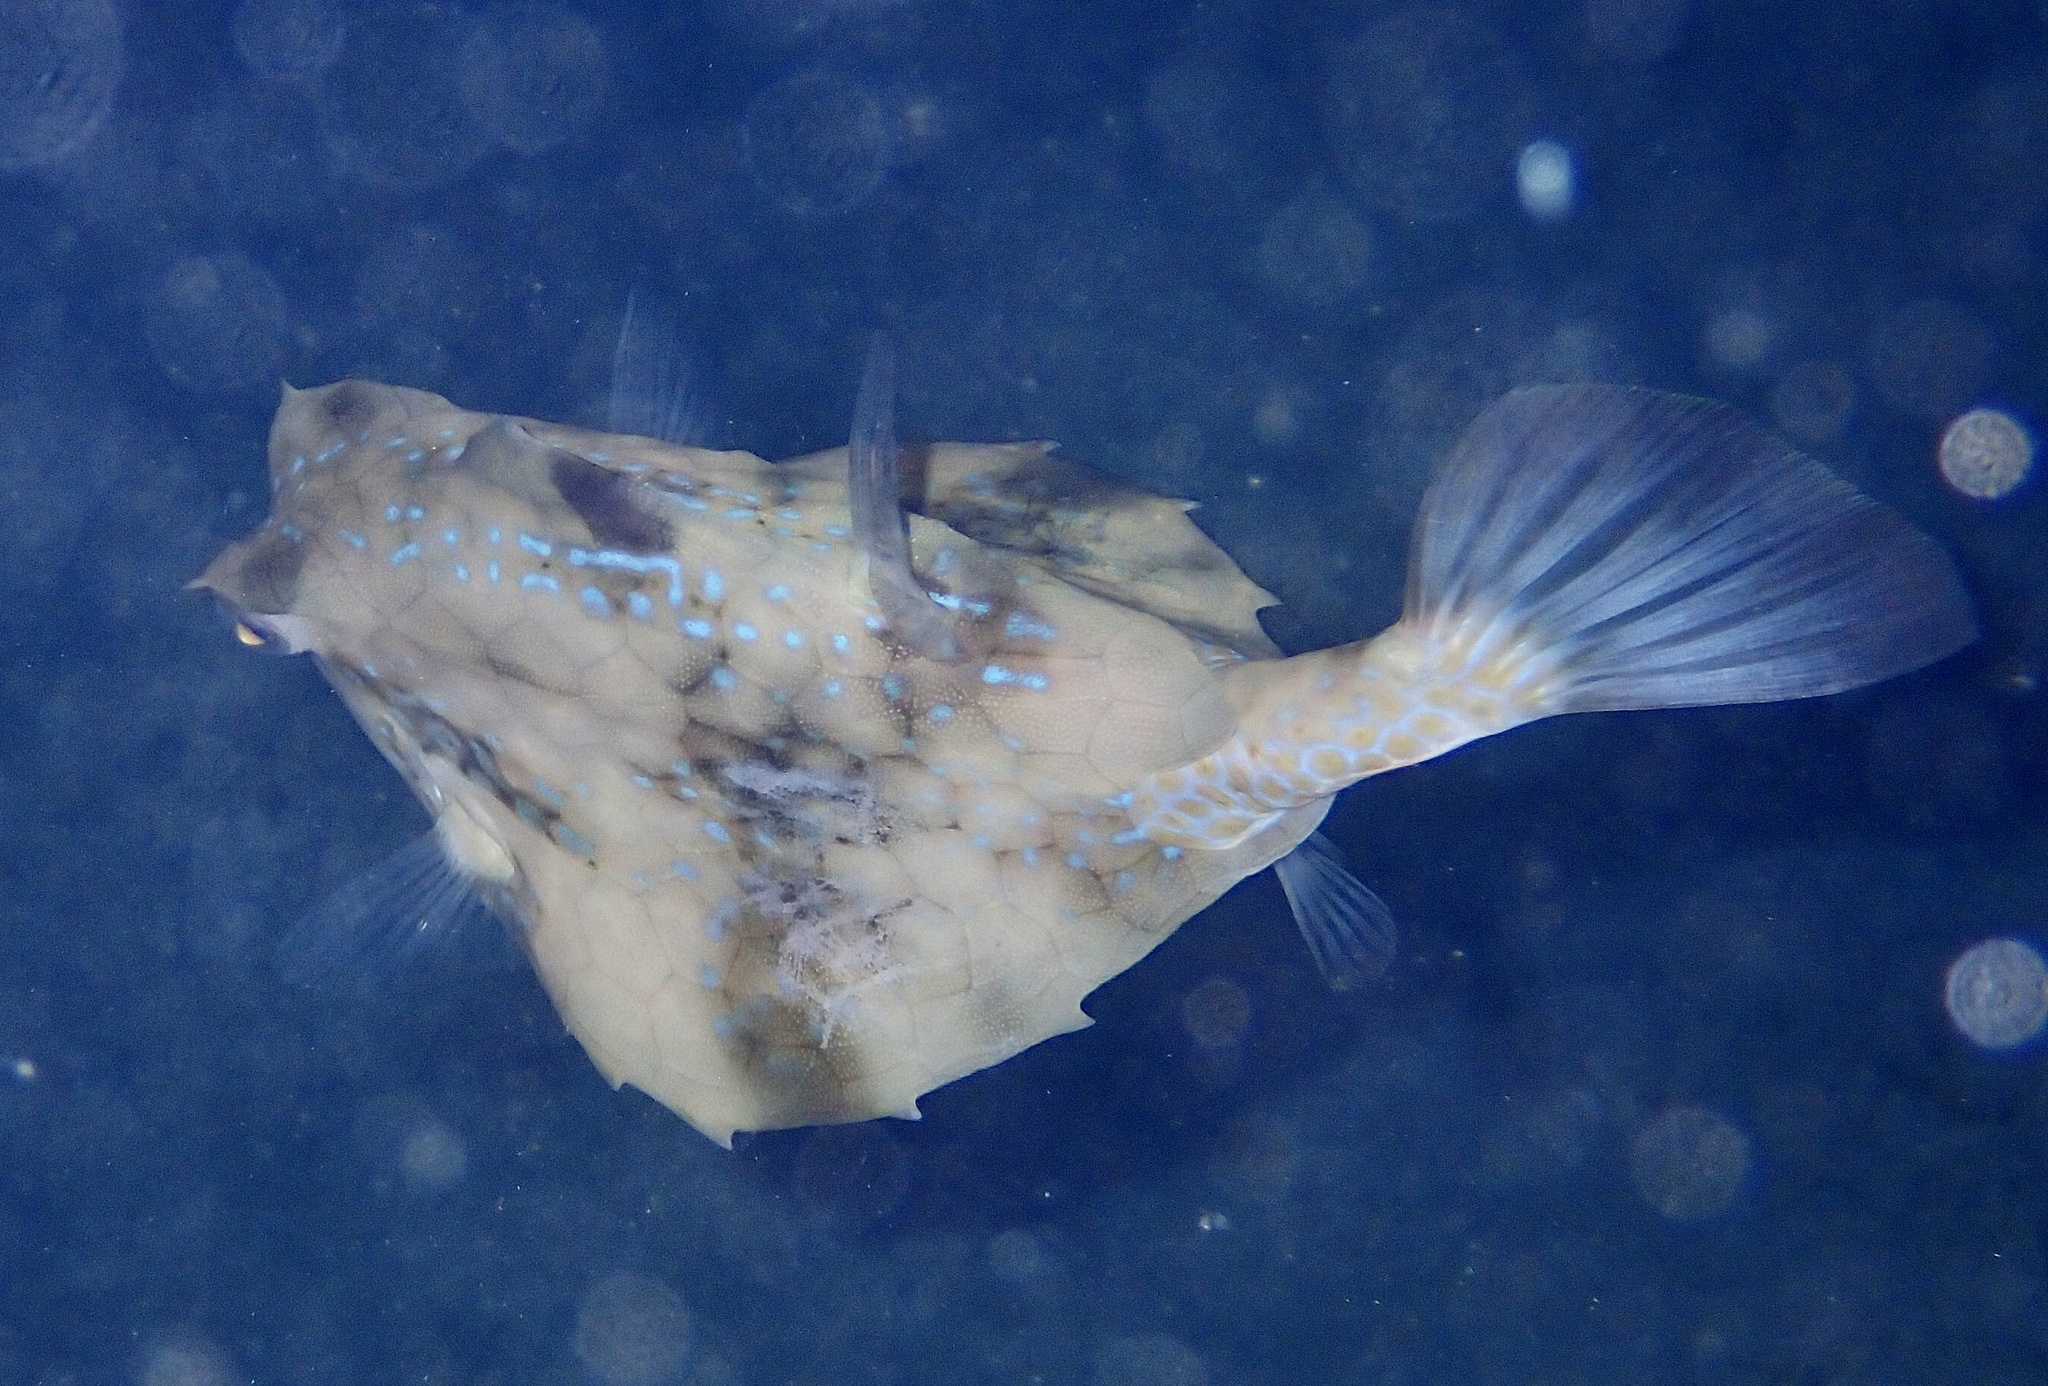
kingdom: Animalia
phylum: Chordata
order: Tetraodontiformes
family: Ostraciidae
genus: Tetrosomus
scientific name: Tetrosomus gibbosus
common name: Humpback turretfish
